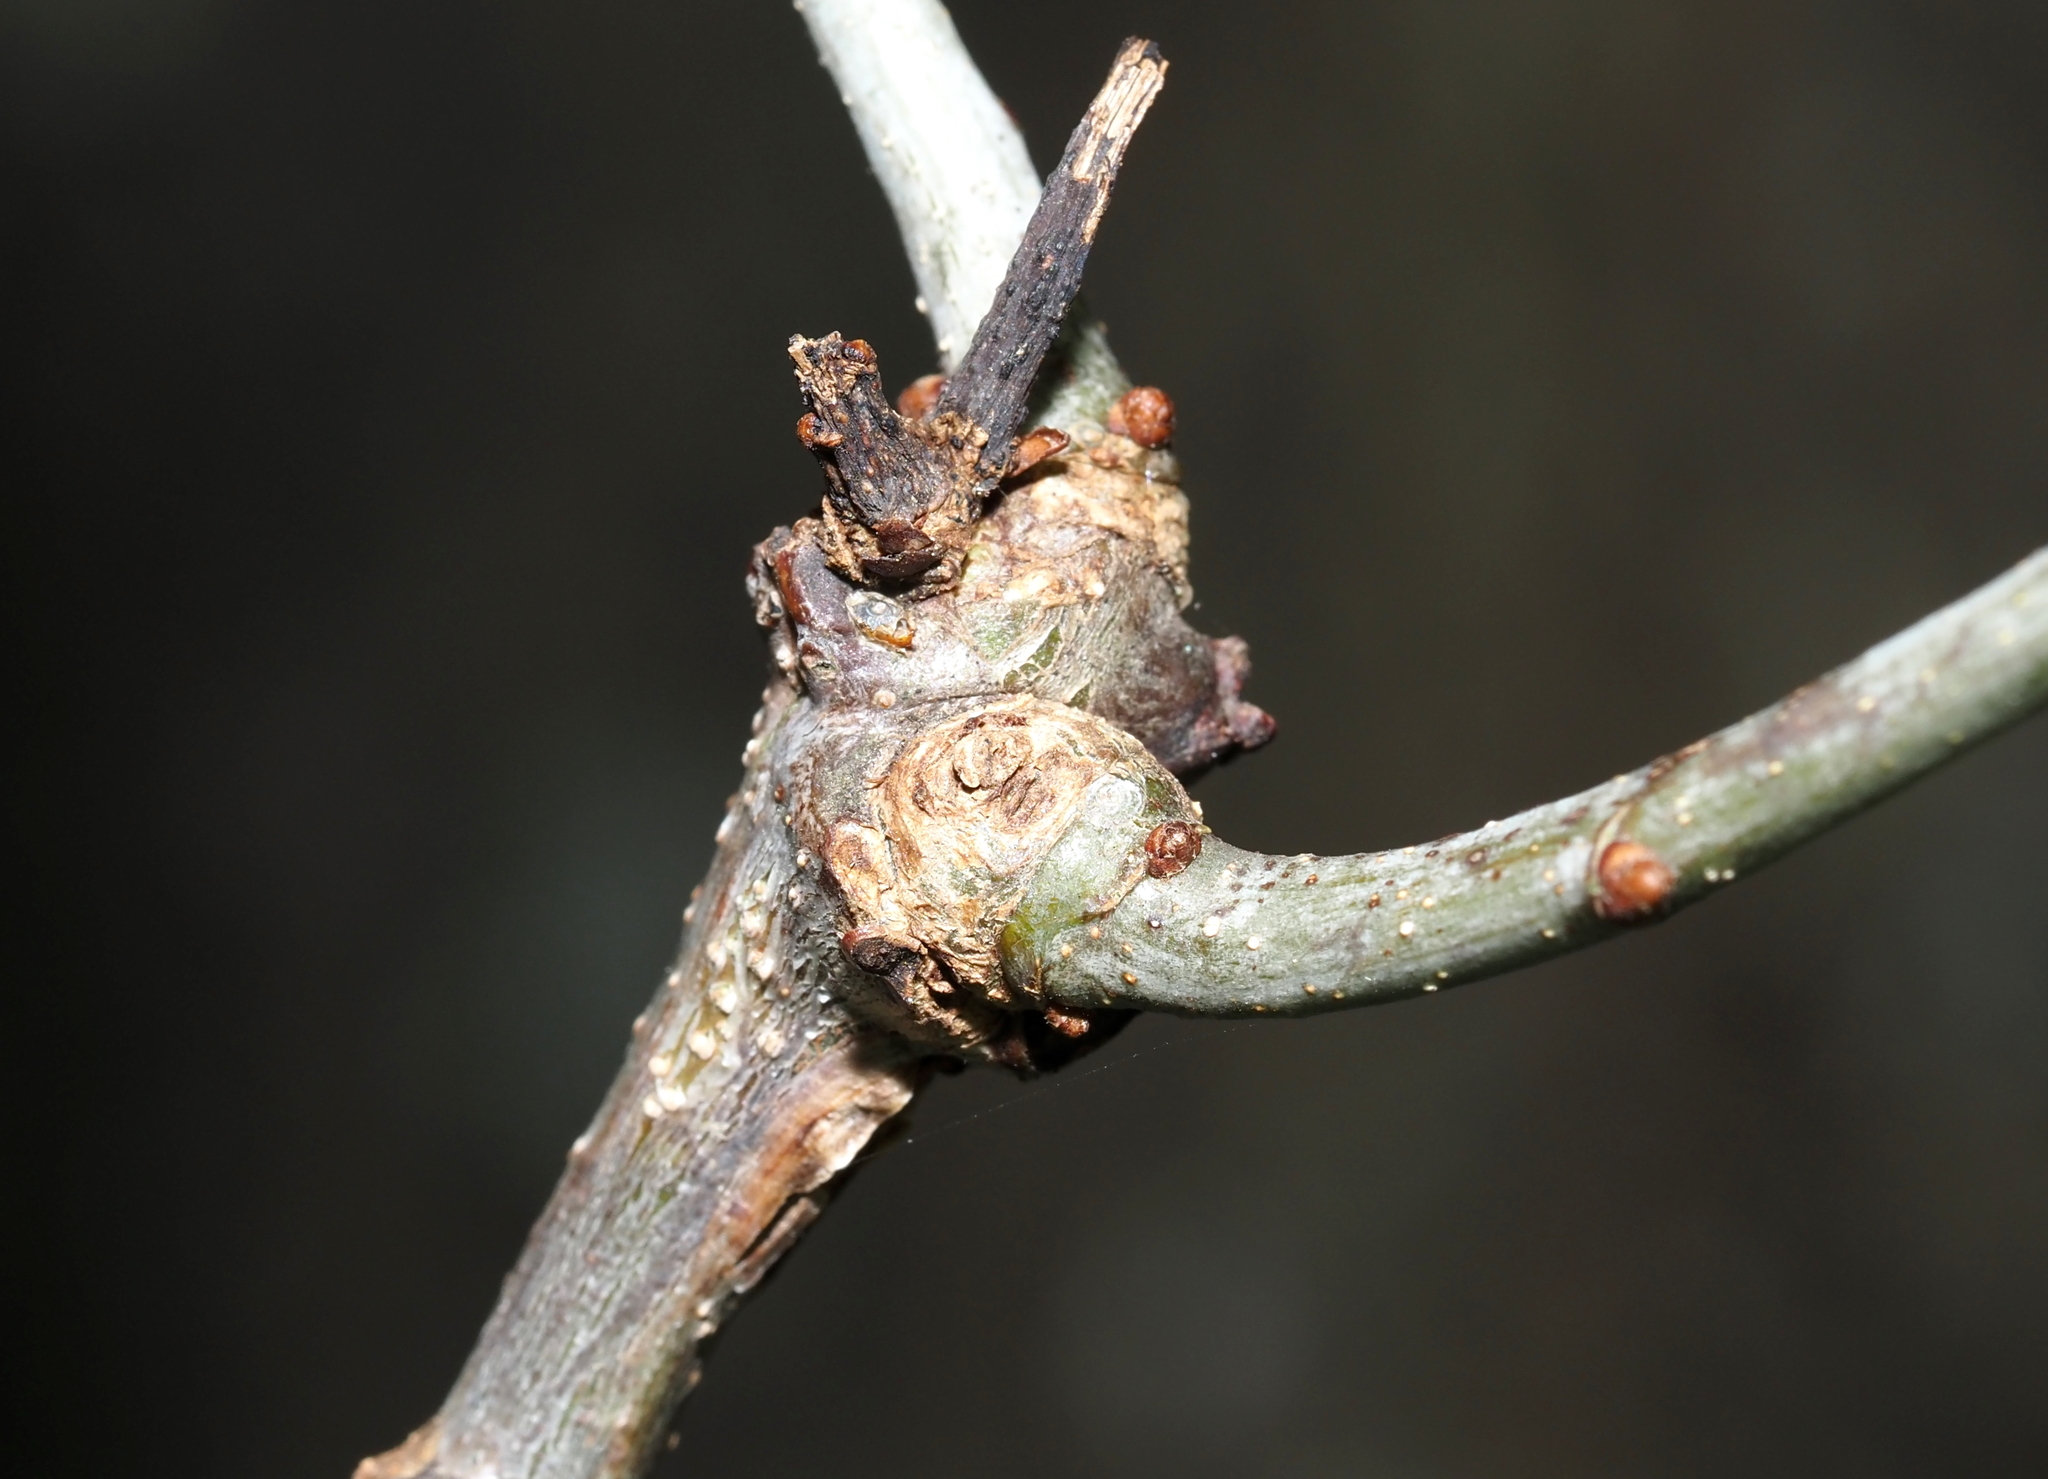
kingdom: Animalia
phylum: Arthropoda
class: Insecta
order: Hymenoptera
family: Cynipidae
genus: Loxaulus
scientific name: Loxaulus
